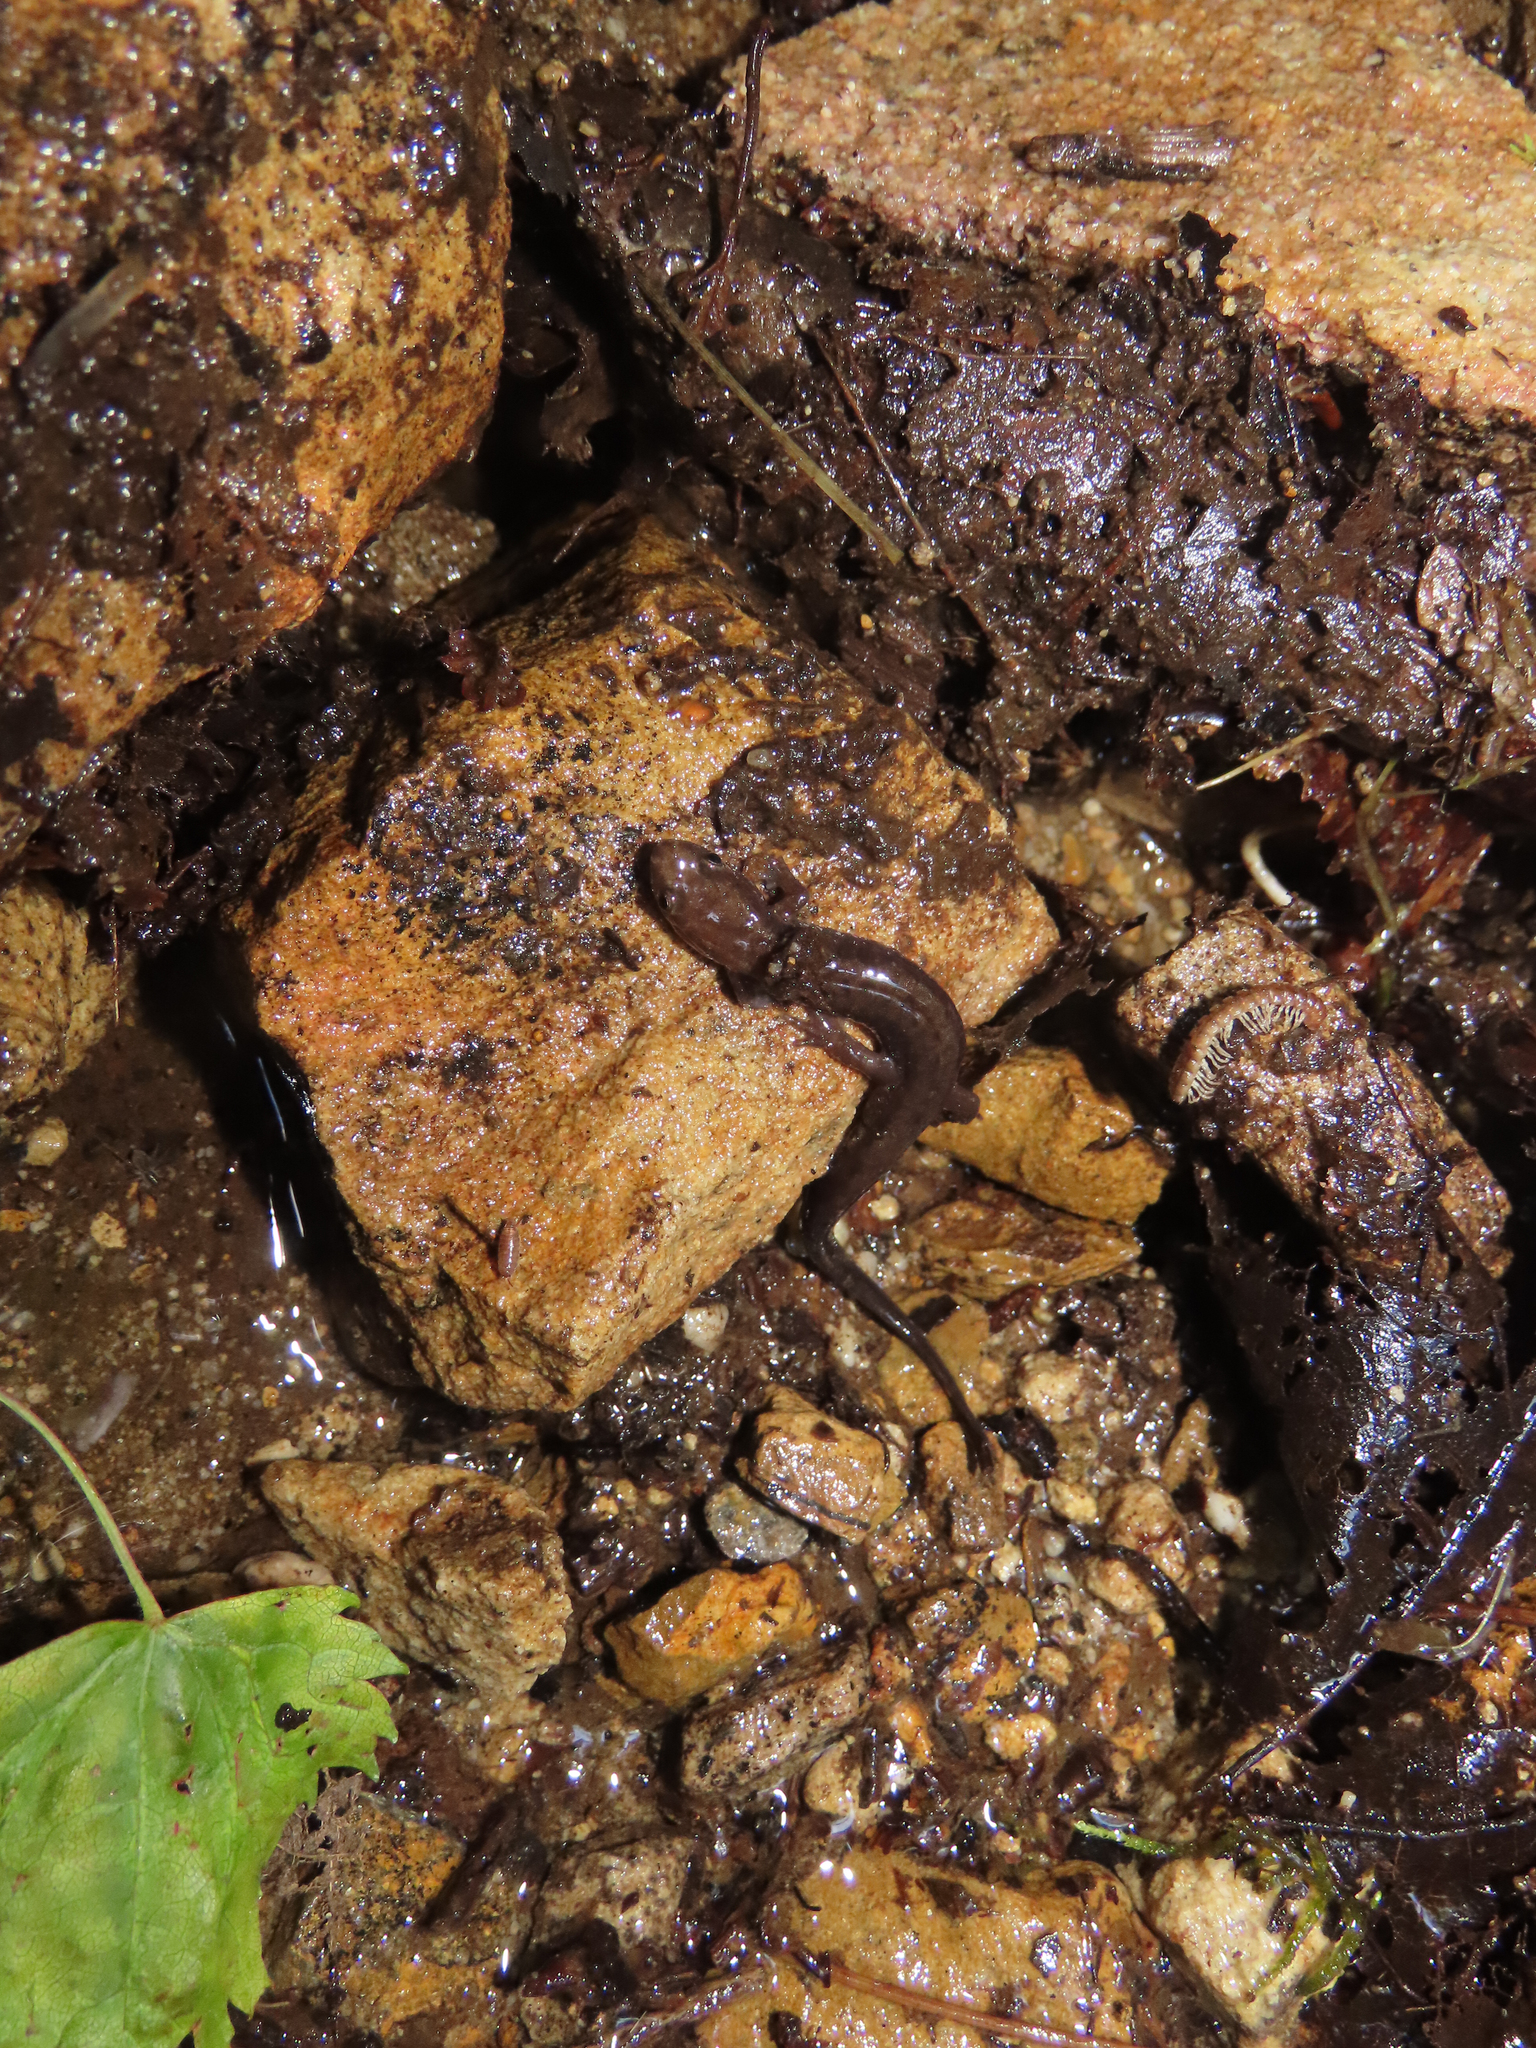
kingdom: Animalia
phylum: Chordata
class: Amphibia
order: Caudata
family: Plethodontidae
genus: Desmognathus
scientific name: Desmognathus ochrophaeus
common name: Allegheny mountain dusky salamander
